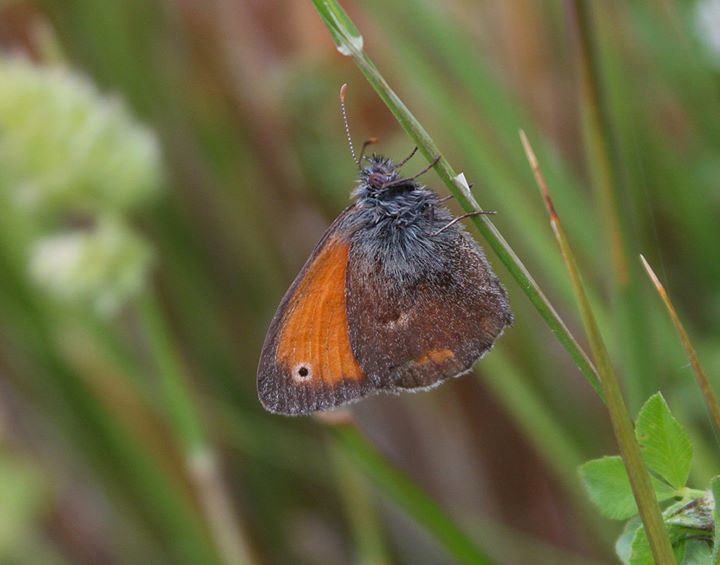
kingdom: Animalia
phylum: Arthropoda
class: Insecta
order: Lepidoptera
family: Nymphalidae
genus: Coenonympha
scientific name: Coenonympha pamphilus
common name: Small heath
